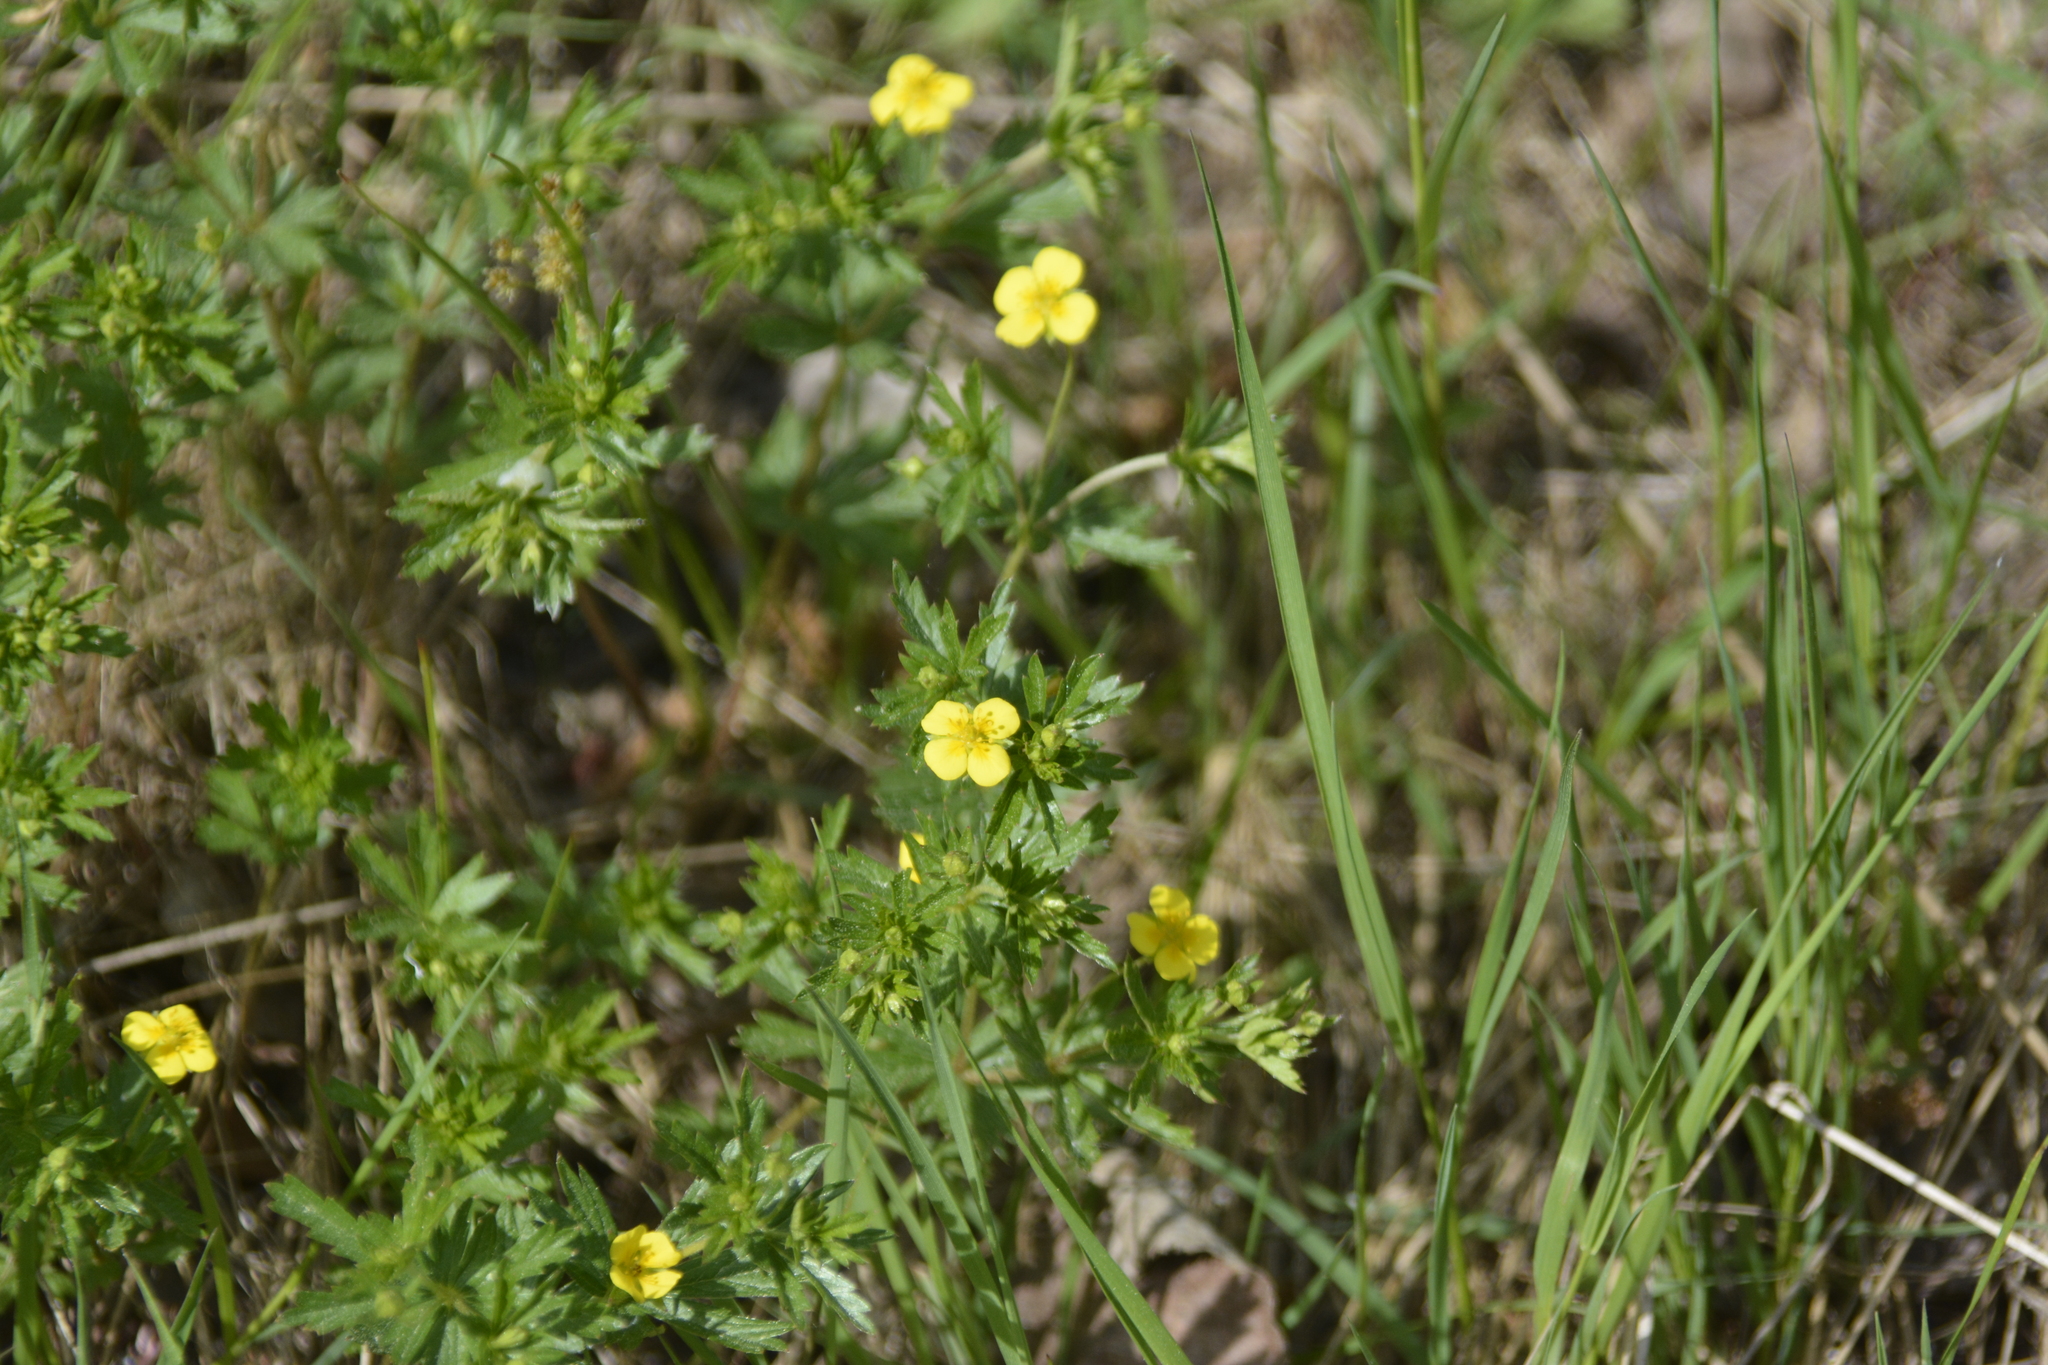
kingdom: Plantae
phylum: Tracheophyta
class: Magnoliopsida
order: Rosales
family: Rosaceae
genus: Potentilla
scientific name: Potentilla erecta
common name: Tormentil
